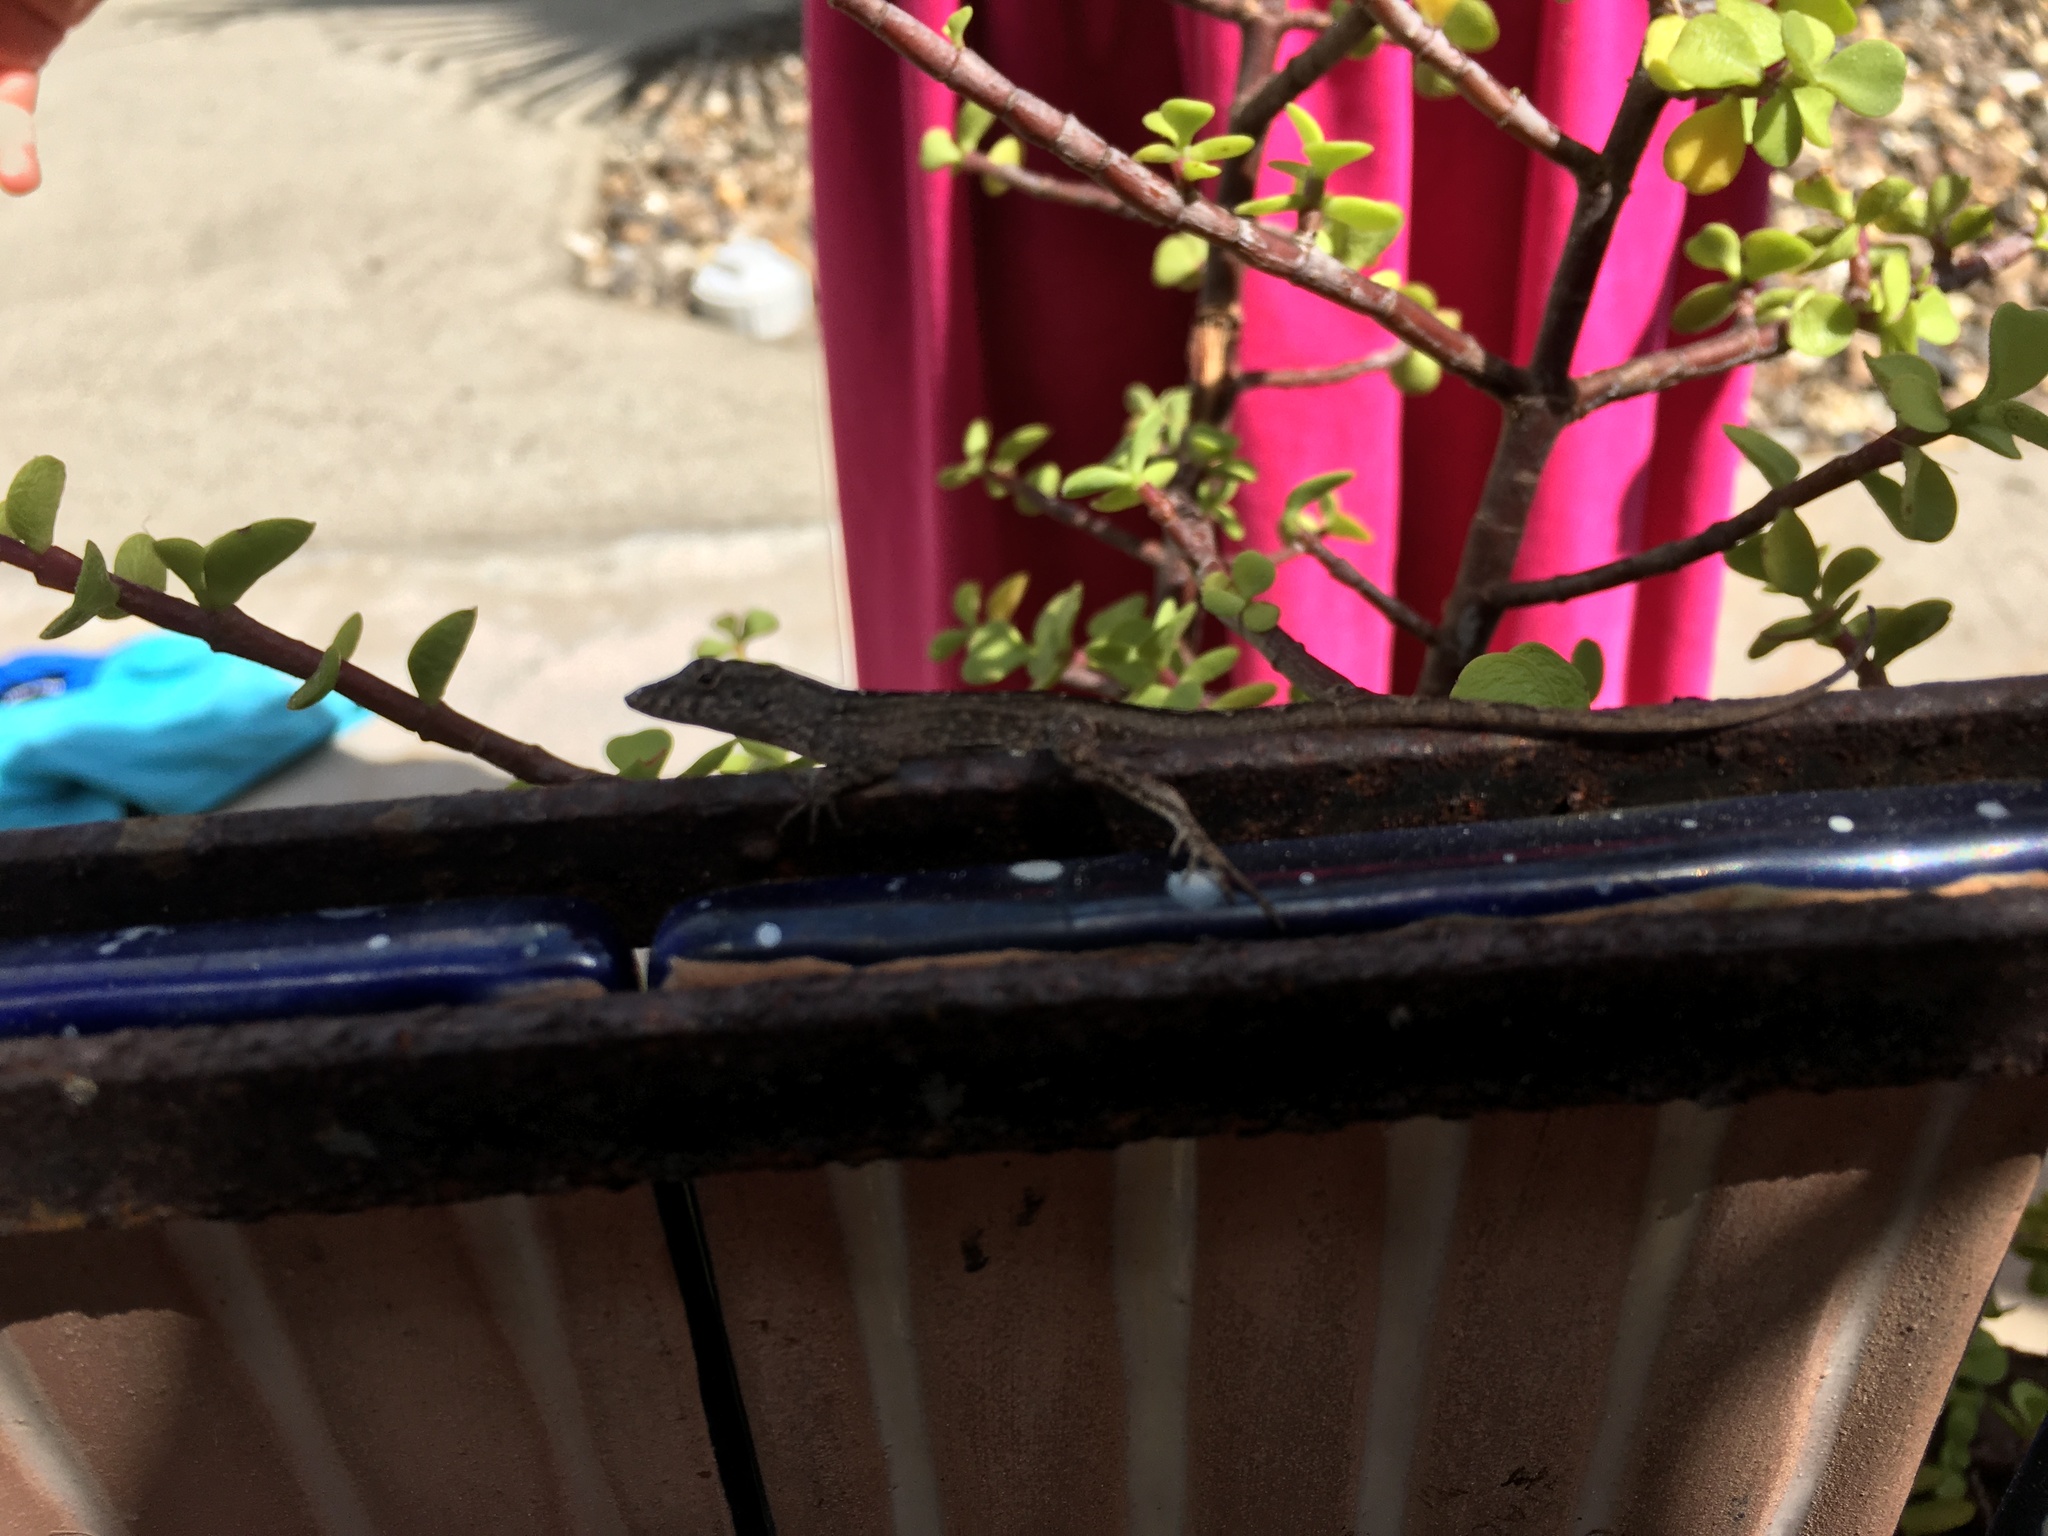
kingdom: Animalia
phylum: Chordata
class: Squamata
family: Dactyloidae
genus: Anolis
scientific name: Anolis sagrei
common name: Brown anole
